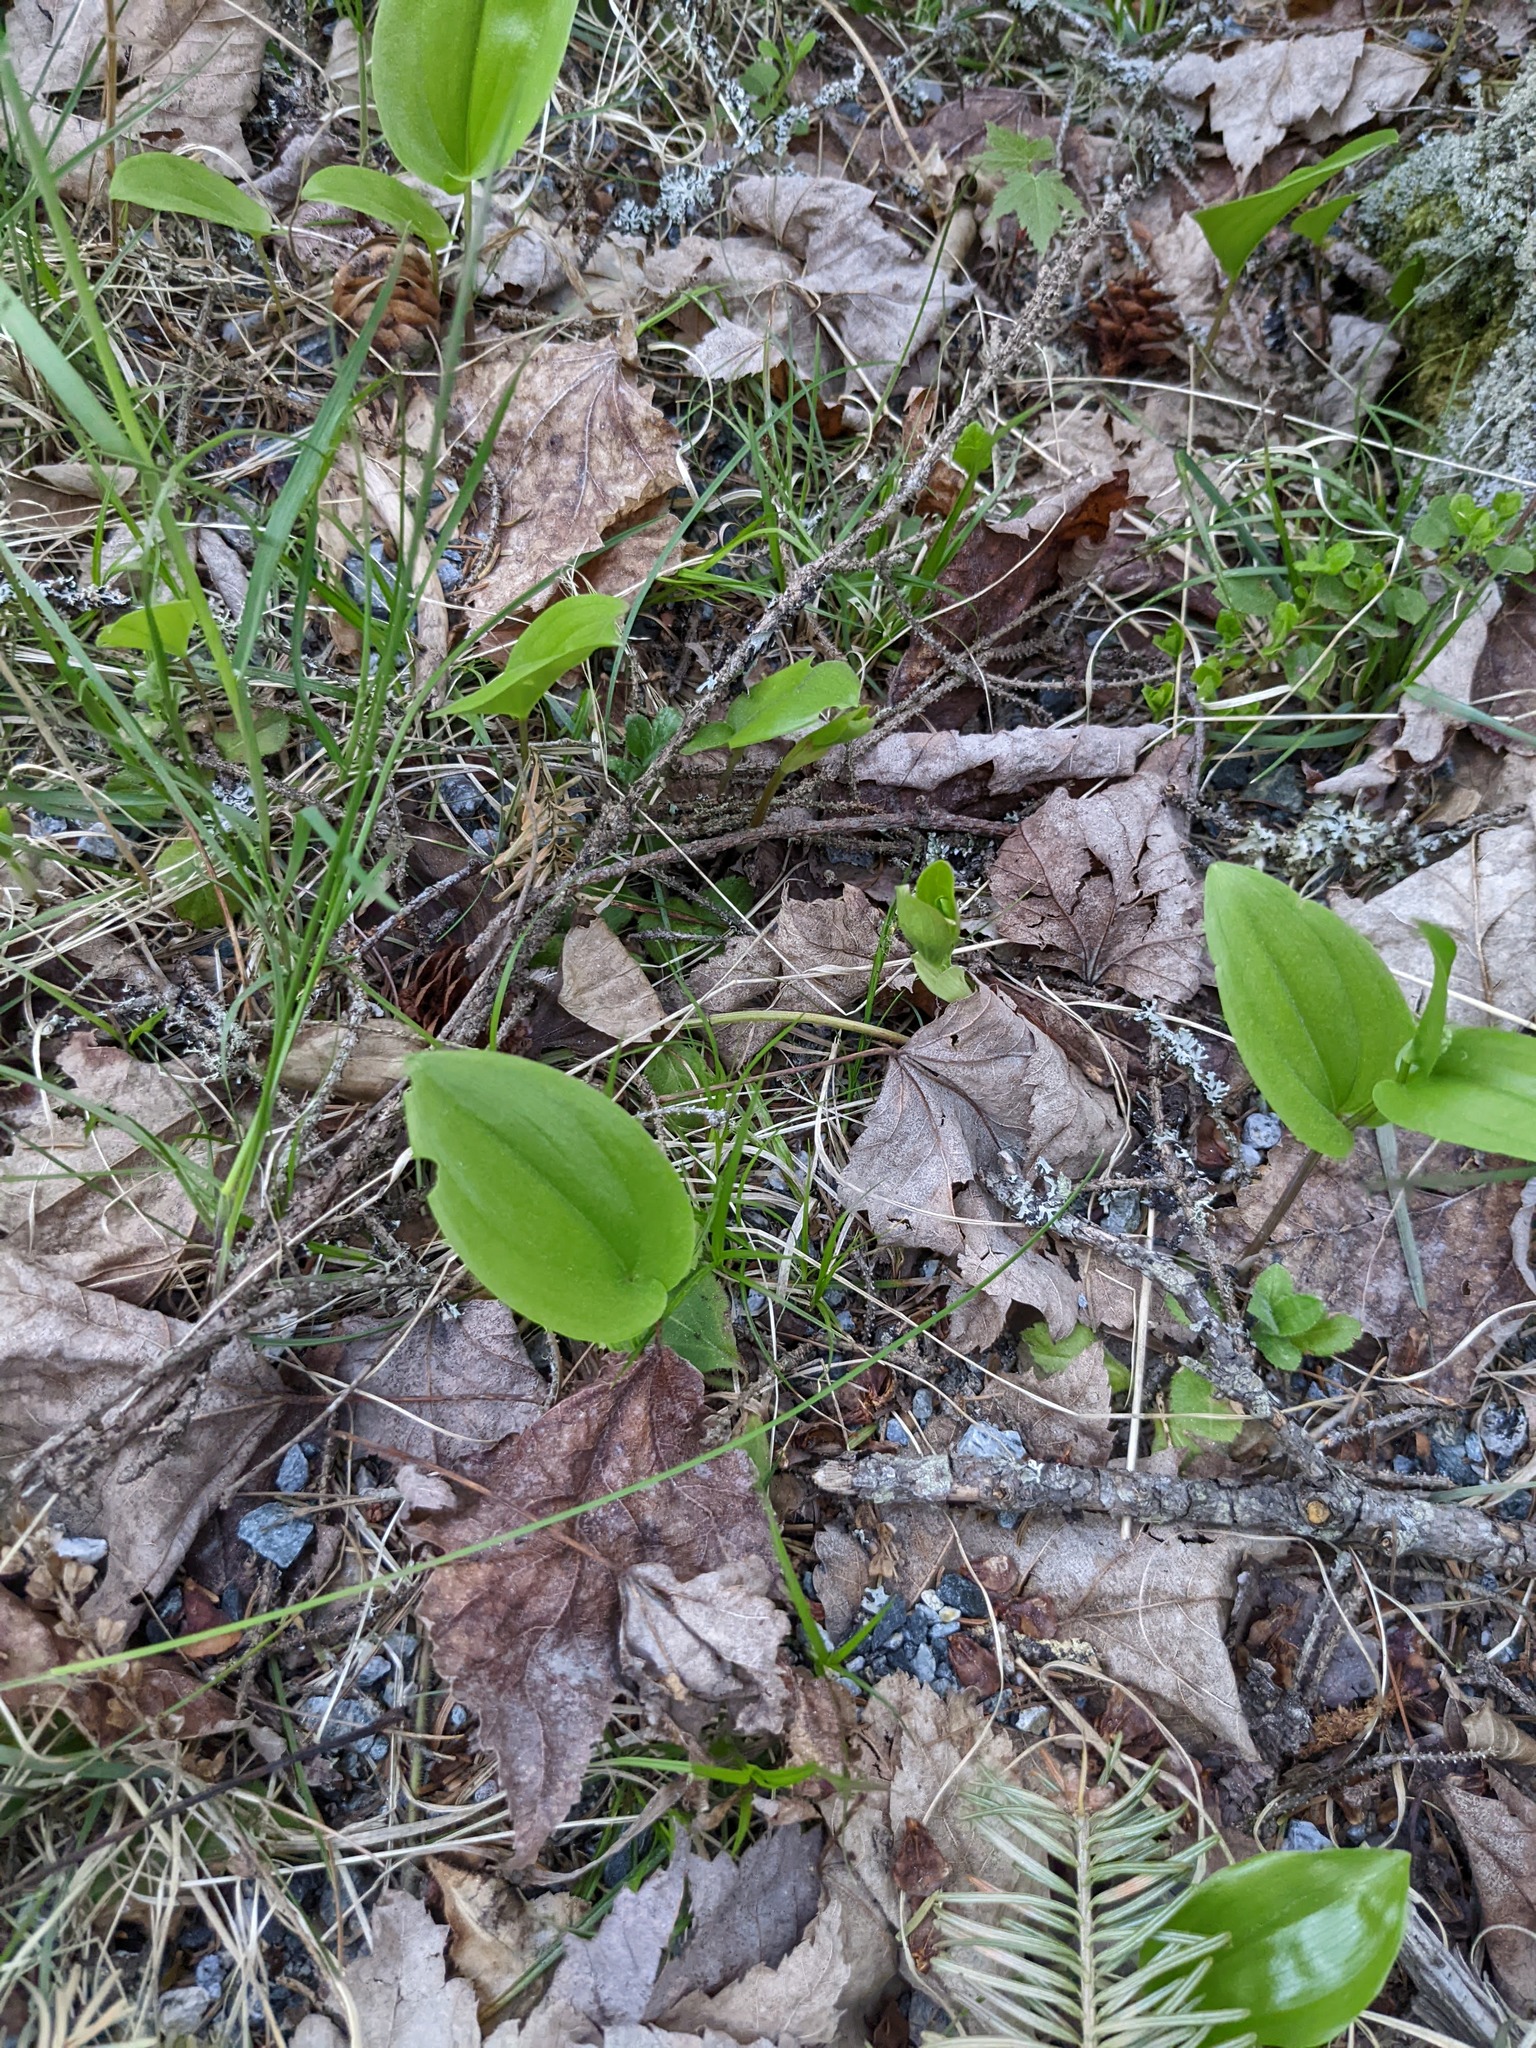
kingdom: Plantae
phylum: Tracheophyta
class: Liliopsida
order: Asparagales
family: Asparagaceae
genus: Maianthemum
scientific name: Maianthemum canadense
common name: False lily-of-the-valley
